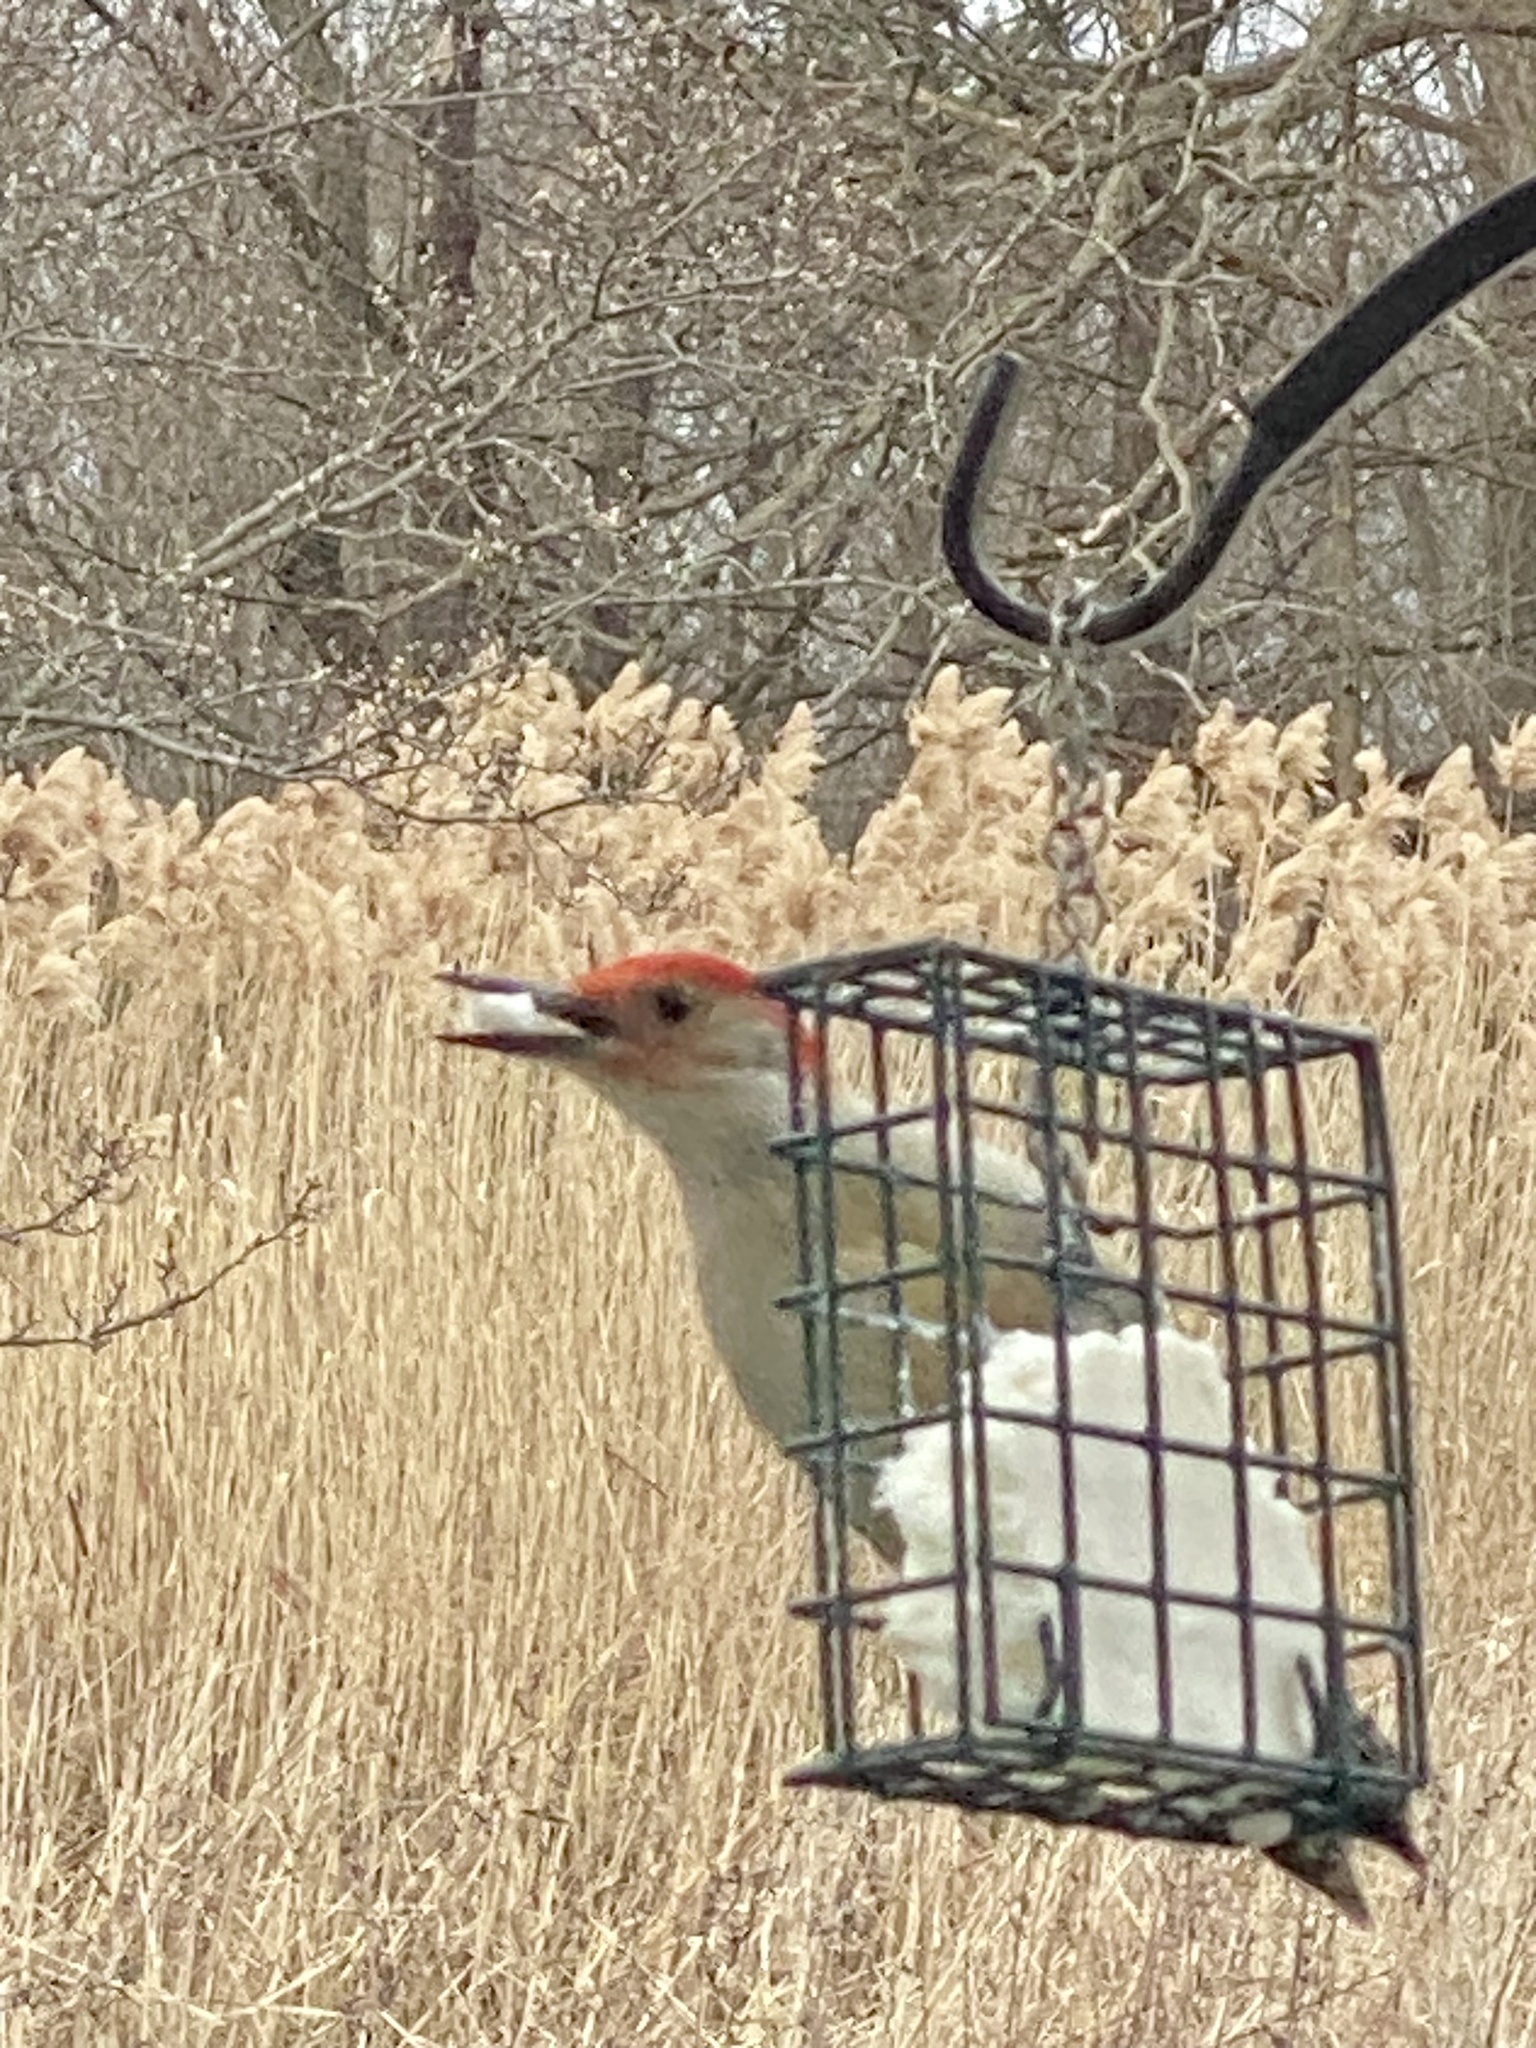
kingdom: Animalia
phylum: Chordata
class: Aves
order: Piciformes
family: Picidae
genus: Melanerpes
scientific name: Melanerpes carolinus
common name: Red-bellied woodpecker
